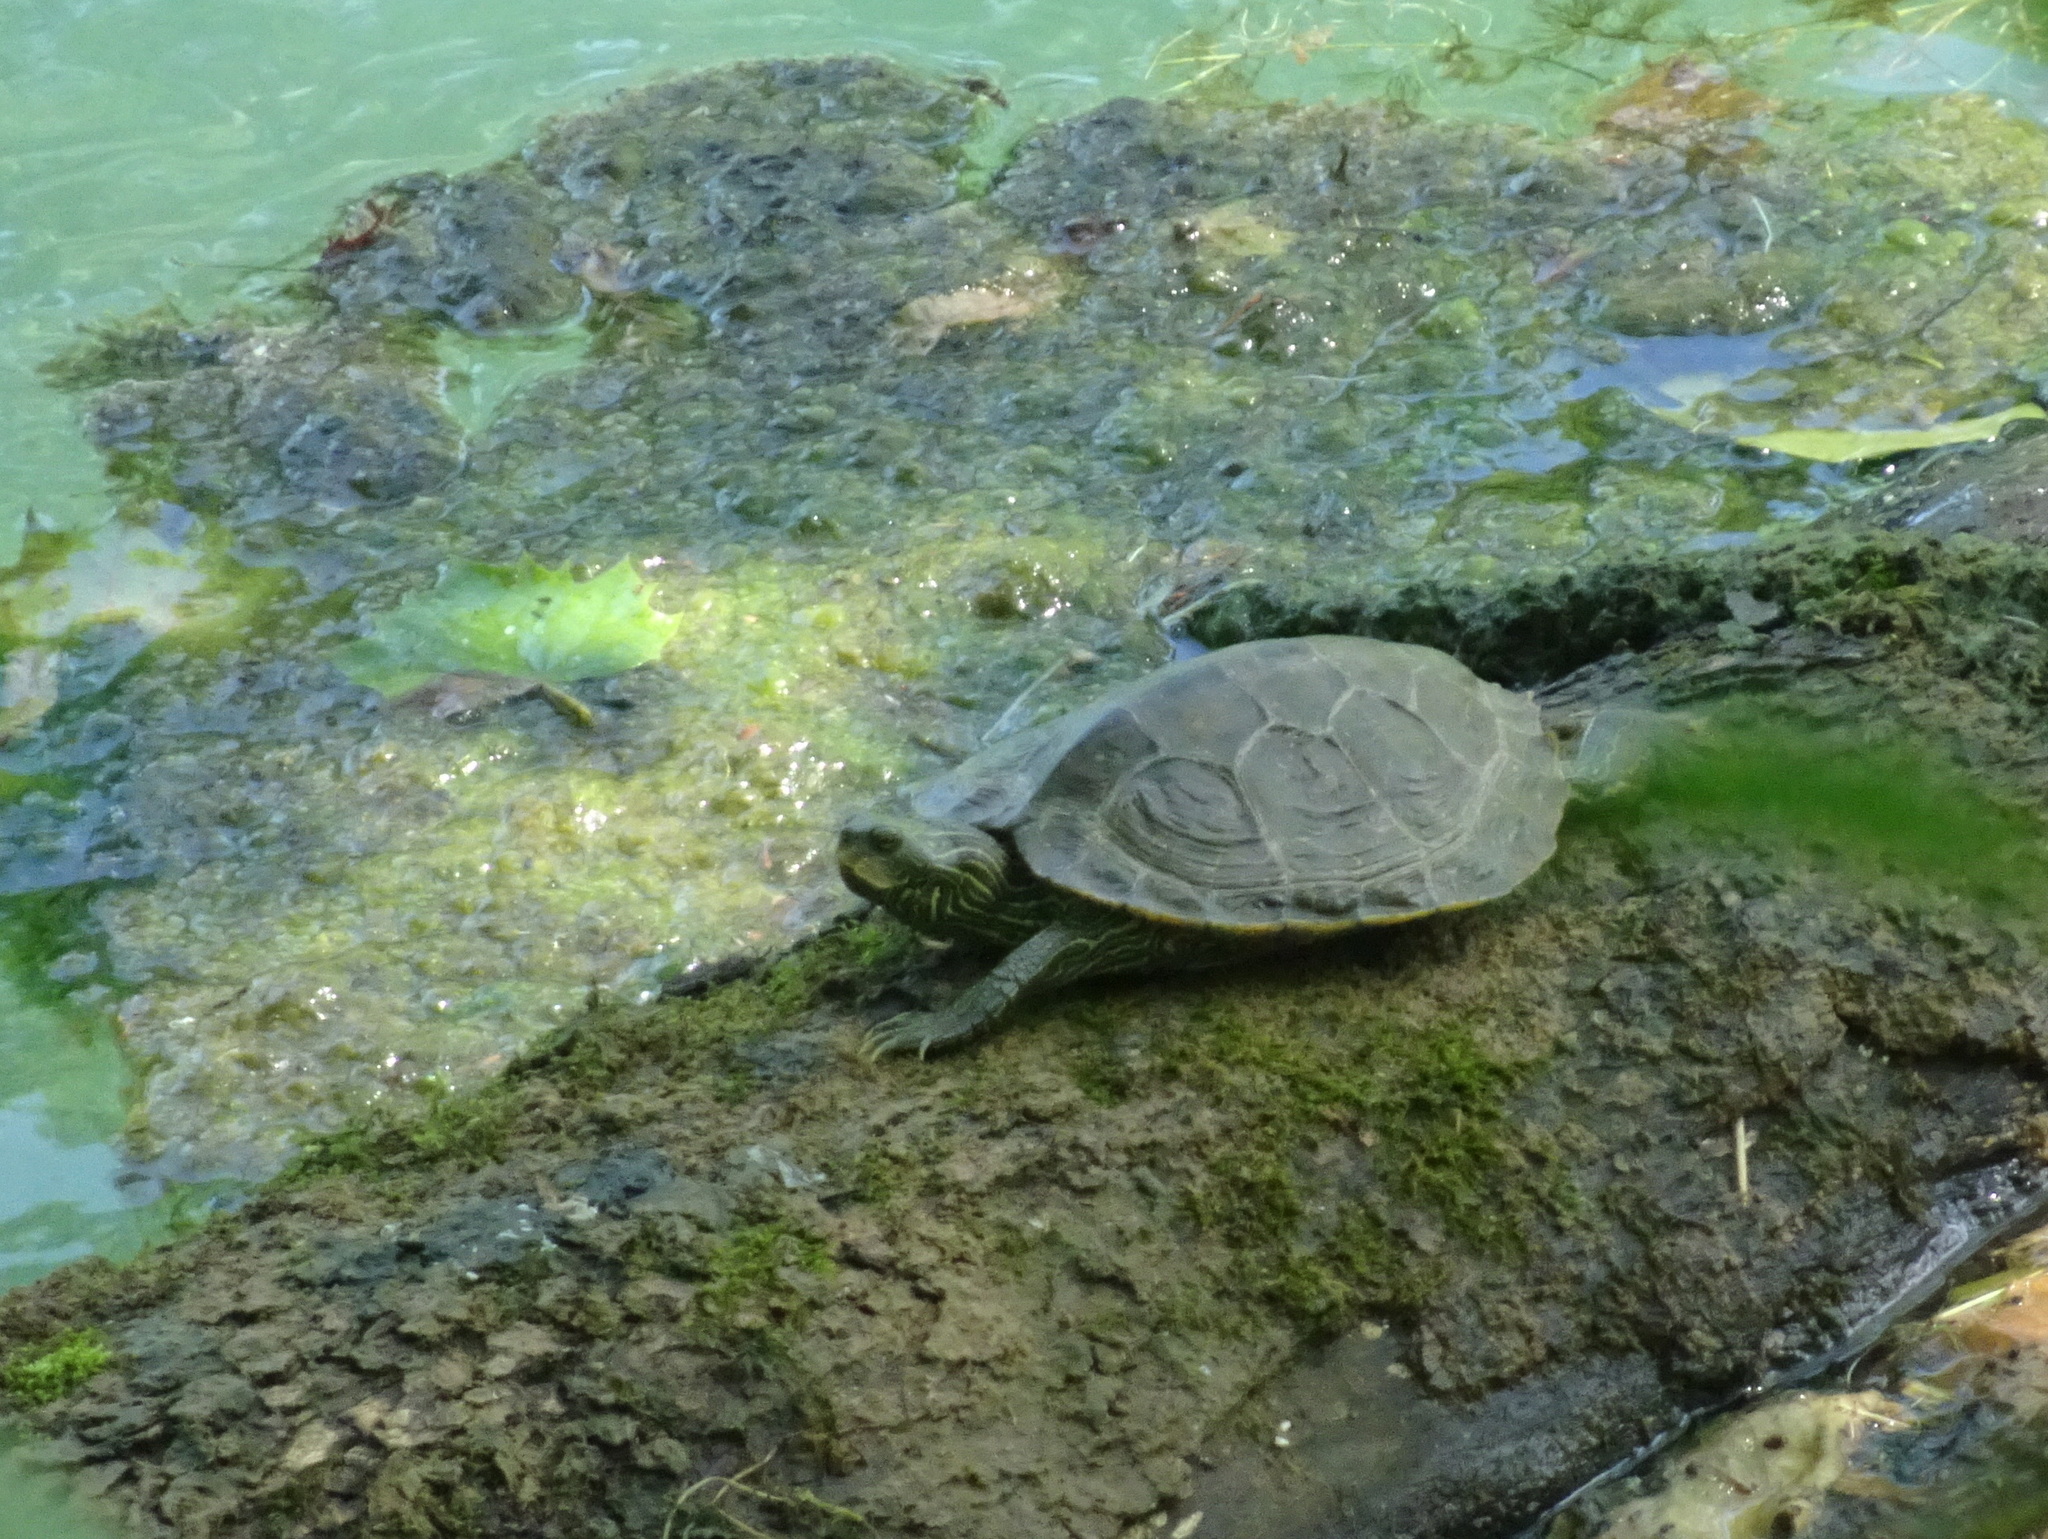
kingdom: Animalia
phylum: Chordata
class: Testudines
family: Emydidae
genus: Graptemys
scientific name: Graptemys geographica
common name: Common map turtle
